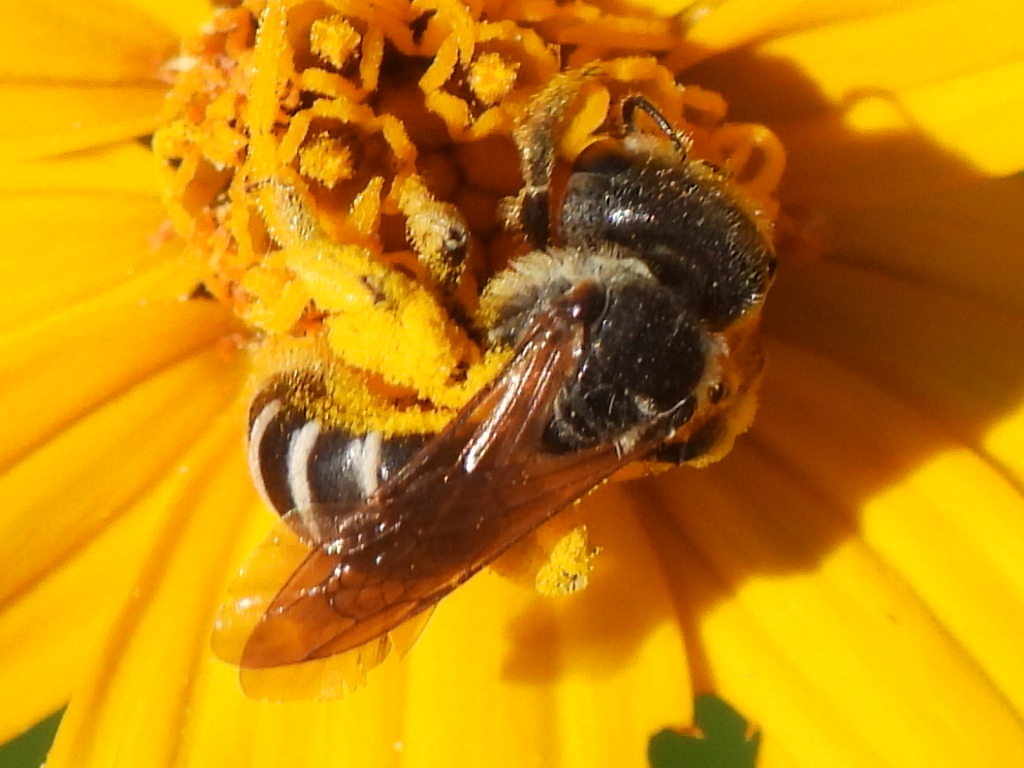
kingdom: Animalia
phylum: Arthropoda
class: Insecta
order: Hymenoptera
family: Halictidae
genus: Halictus
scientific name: Halictus ligatus
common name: Ligated furrow bee
